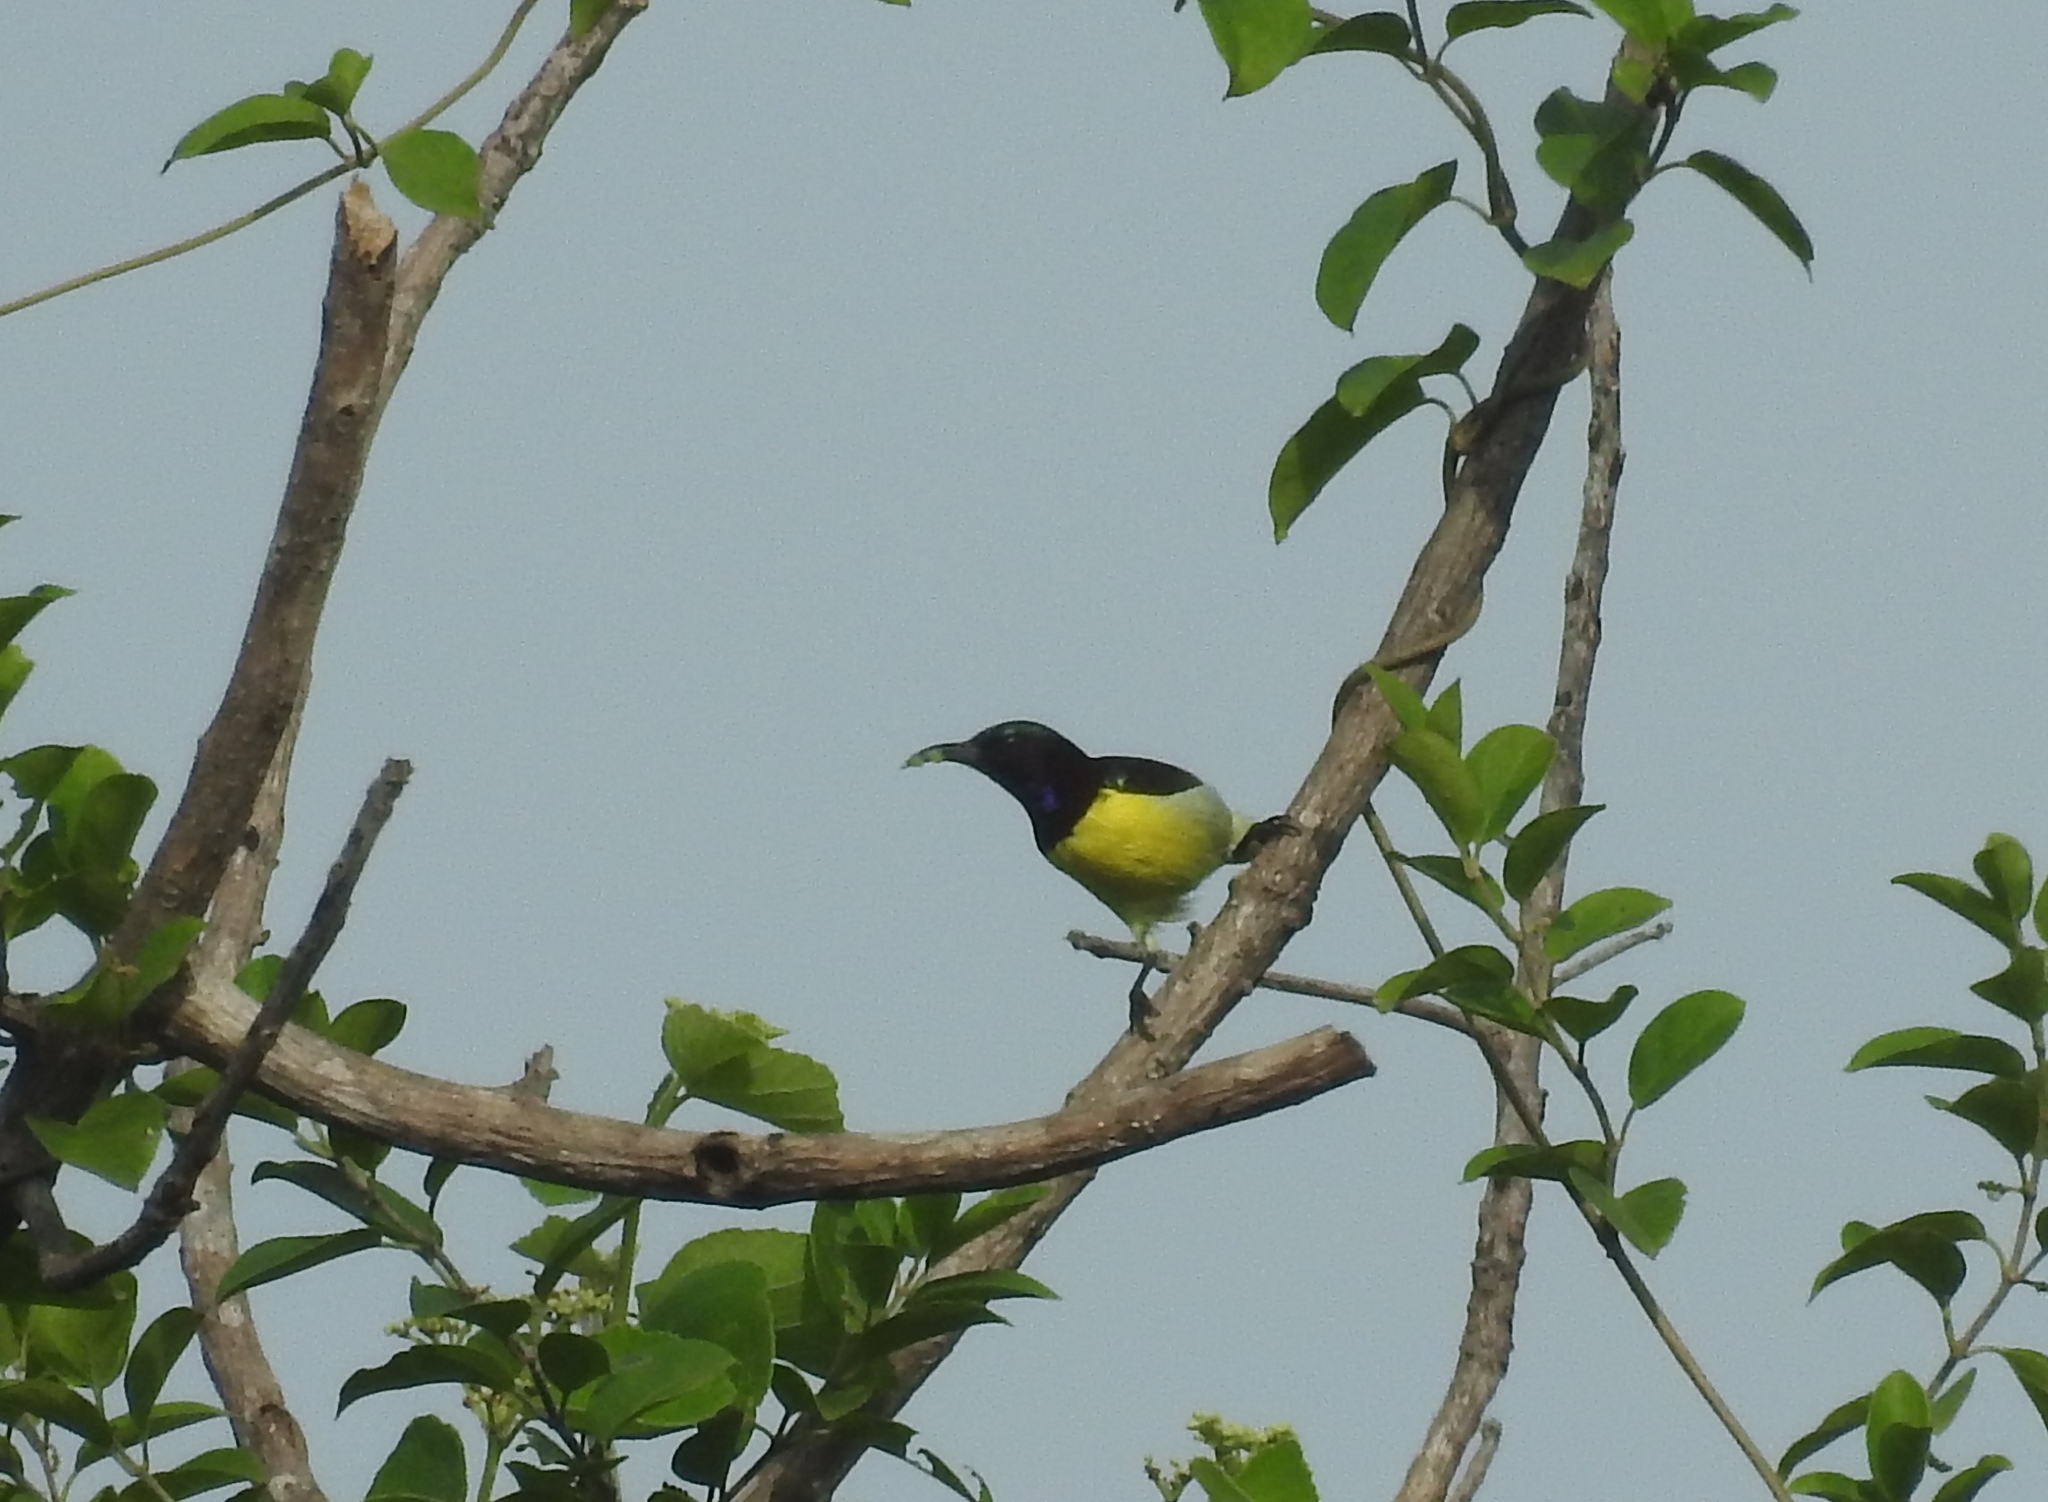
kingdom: Animalia
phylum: Chordata
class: Aves
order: Passeriformes
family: Nectariniidae
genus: Leptocoma
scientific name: Leptocoma zeylonica
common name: Purple-rumped sunbird
